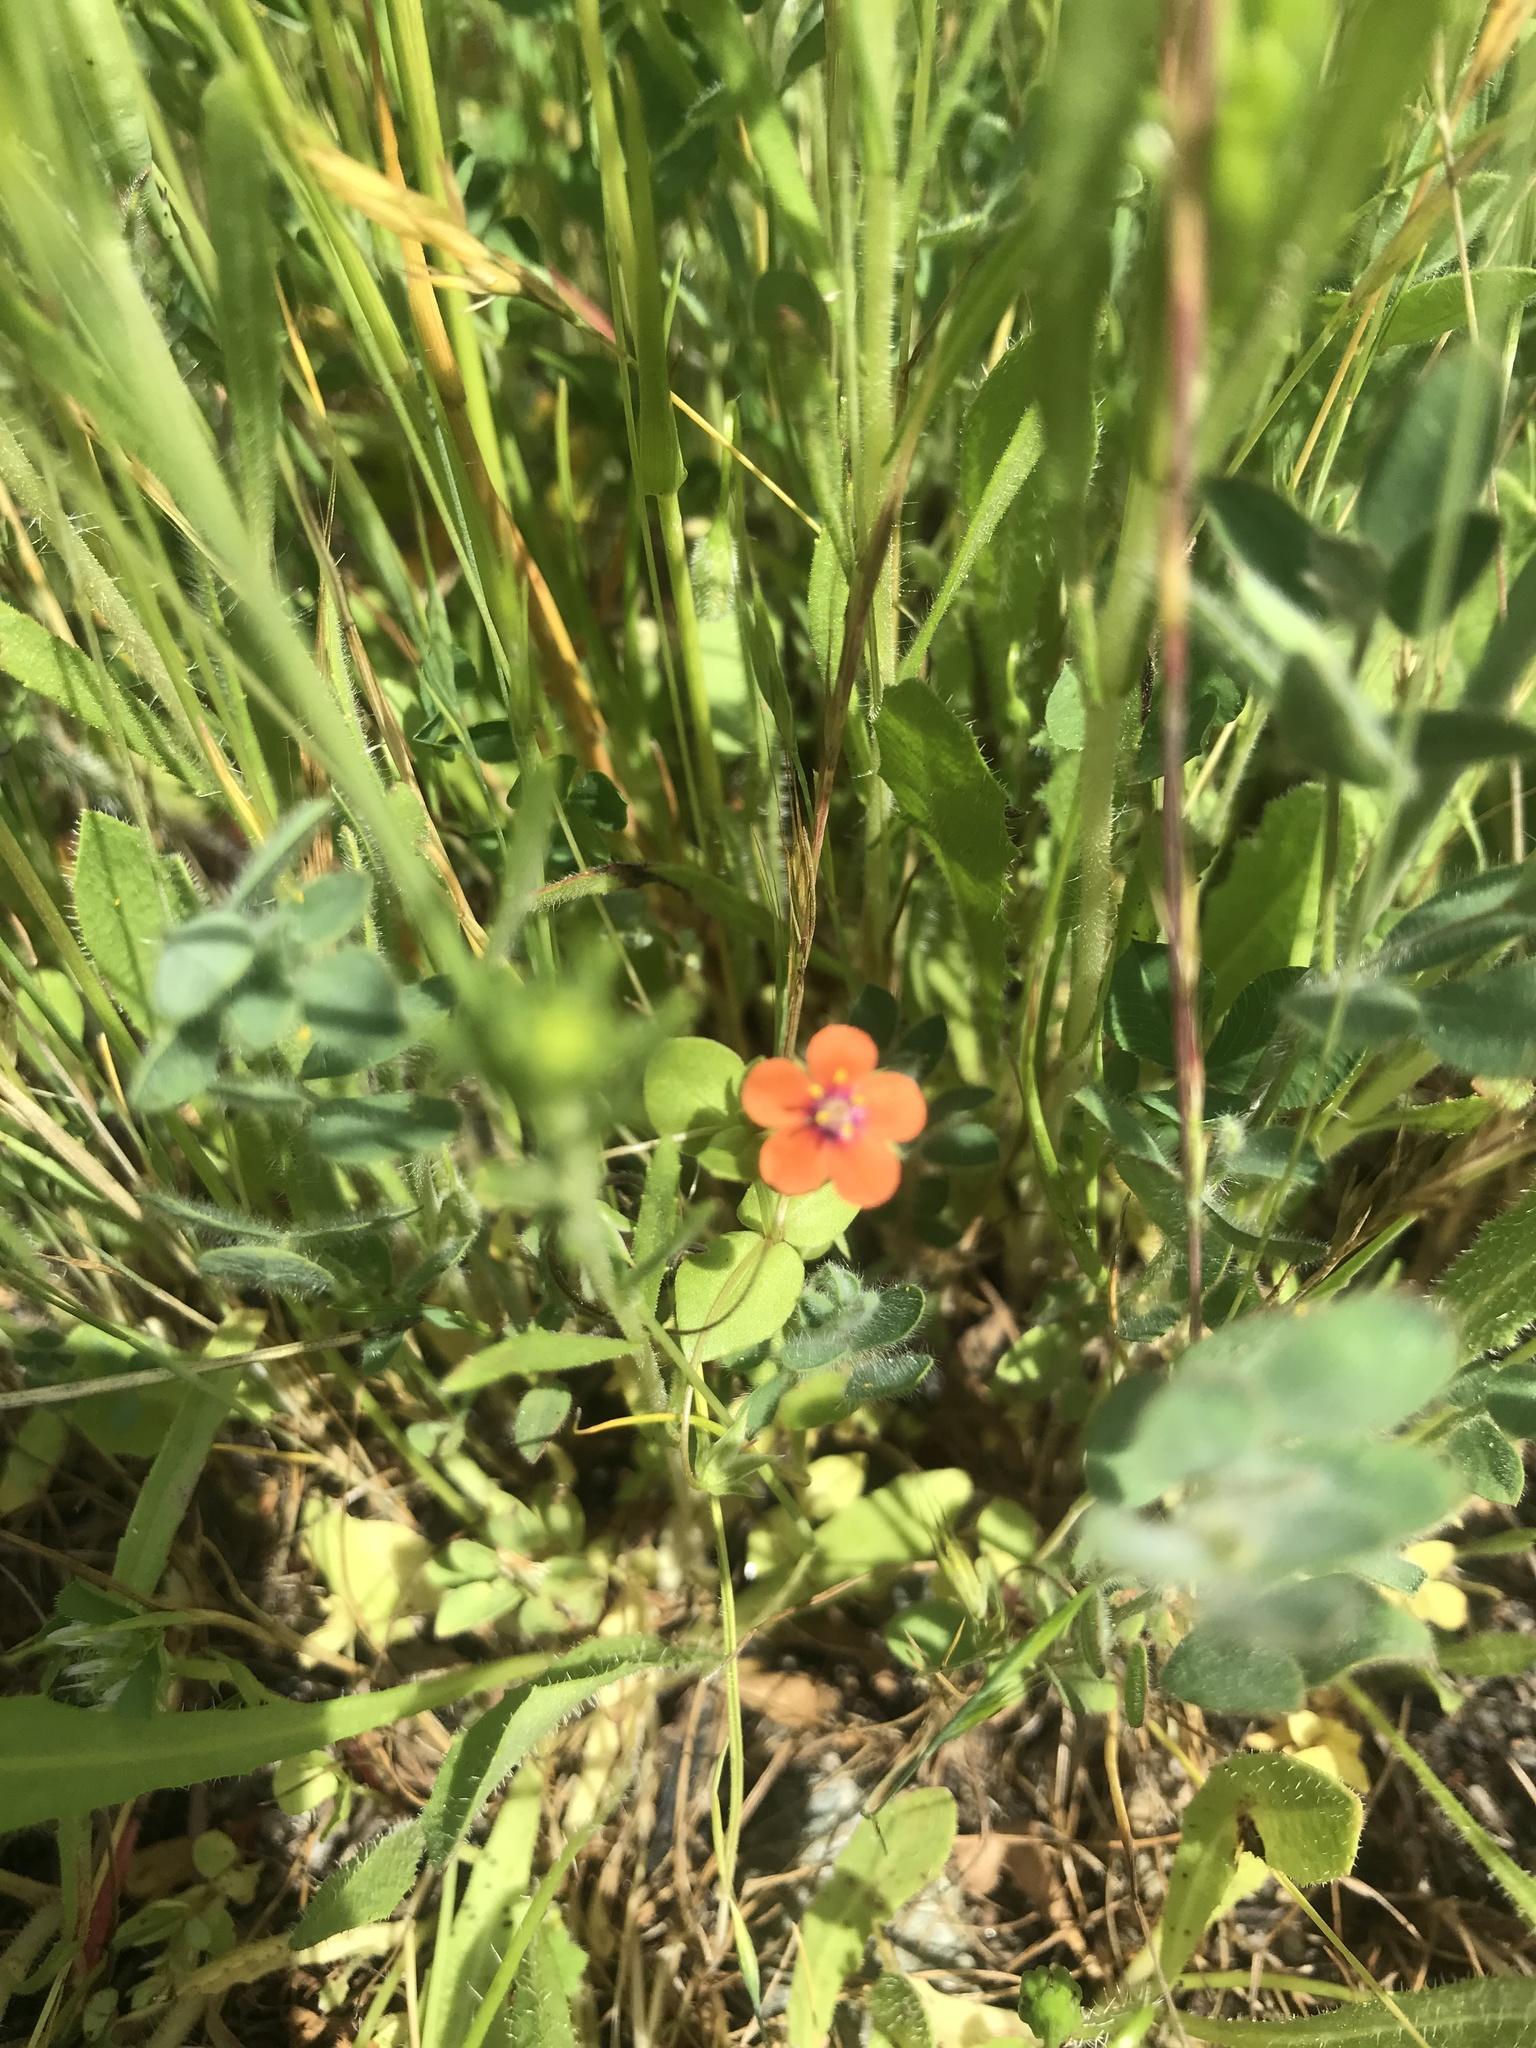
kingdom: Plantae
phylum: Tracheophyta
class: Magnoliopsida
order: Ericales
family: Primulaceae
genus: Lysimachia
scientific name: Lysimachia arvensis
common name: Scarlet pimpernel
